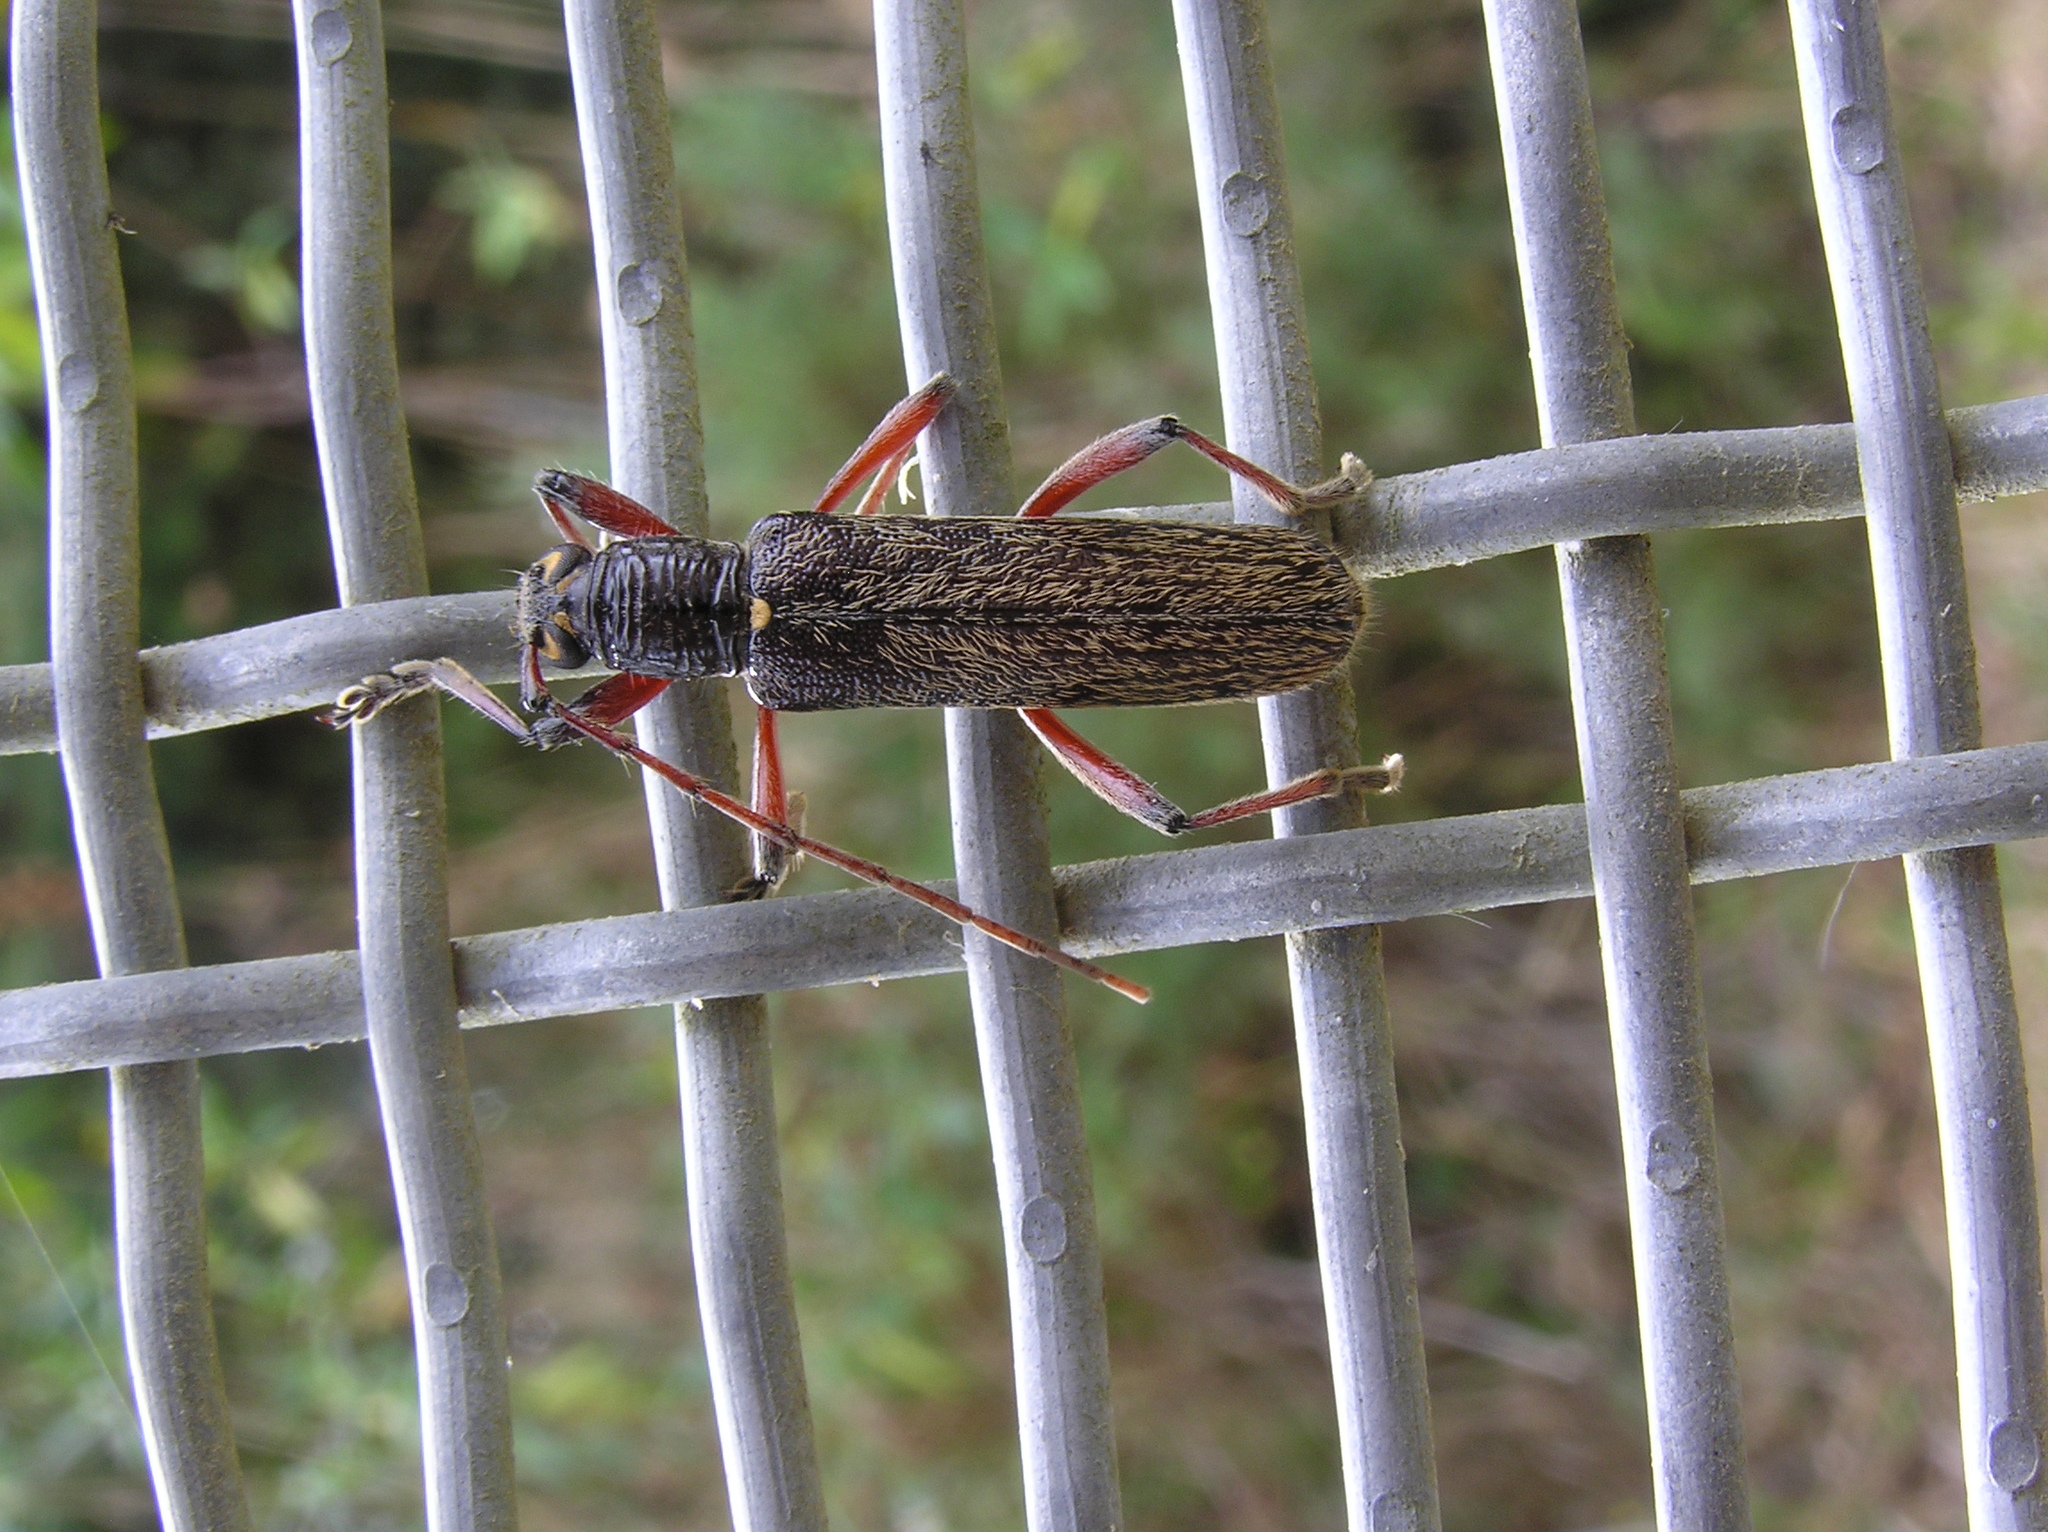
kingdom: Animalia
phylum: Arthropoda
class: Insecta
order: Coleoptera
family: Cerambycidae
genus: Oemona
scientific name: Oemona hirta
